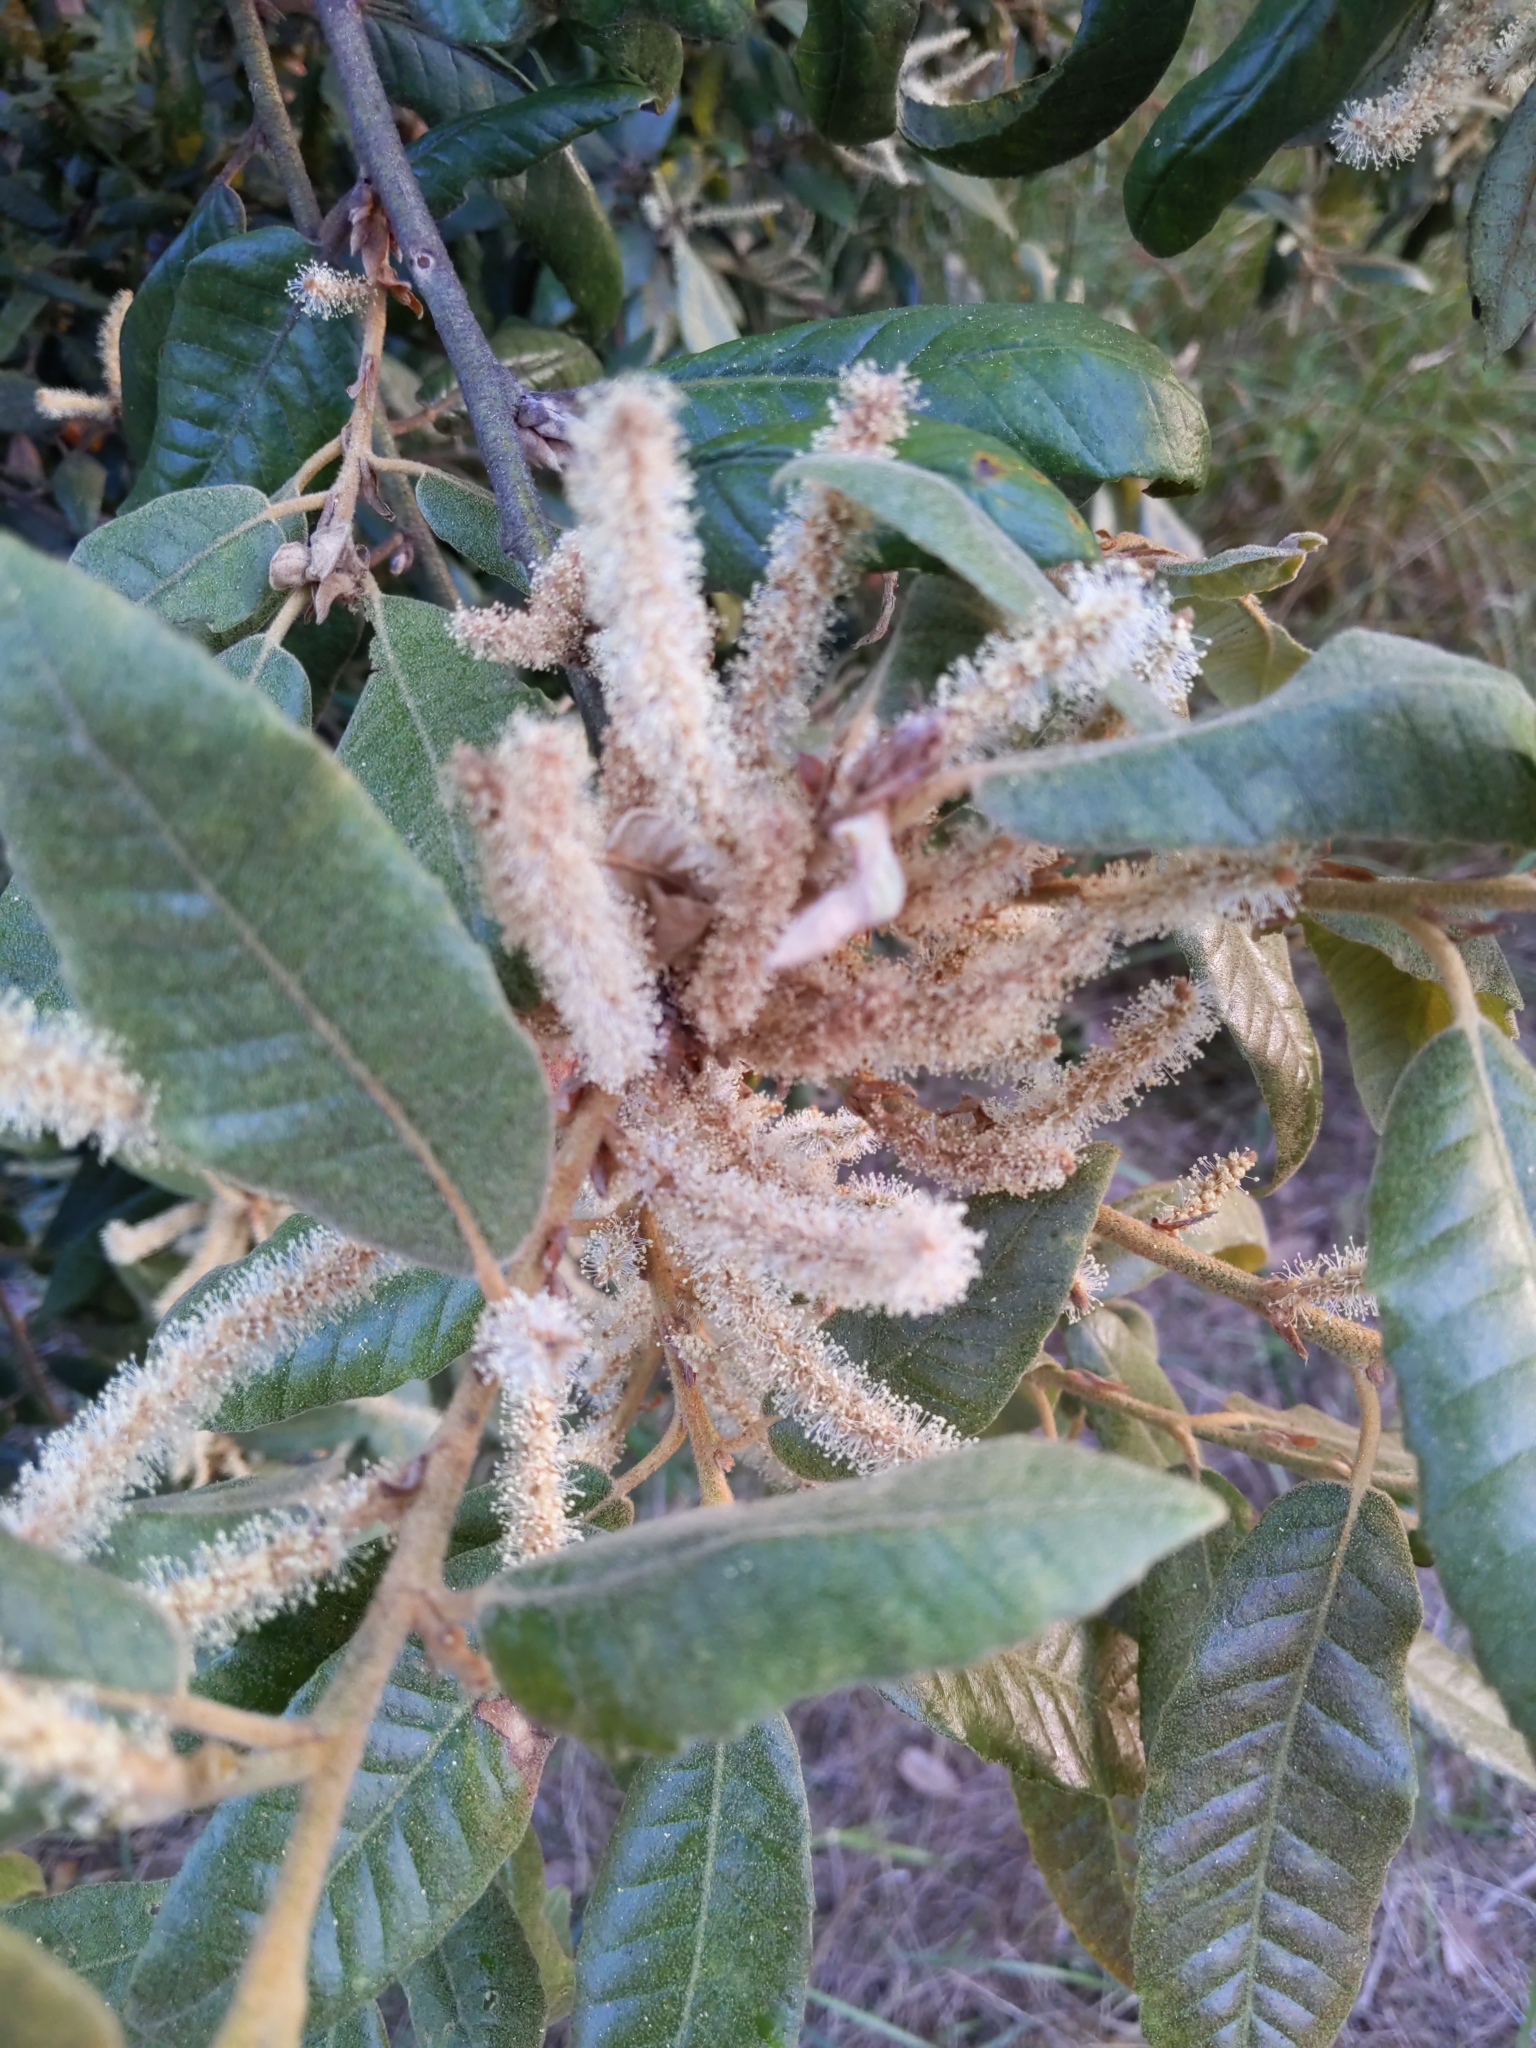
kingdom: Plantae
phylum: Tracheophyta
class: Magnoliopsida
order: Fagales
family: Fagaceae
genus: Notholithocarpus
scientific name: Notholithocarpus densiflorus
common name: Tan bark oak
